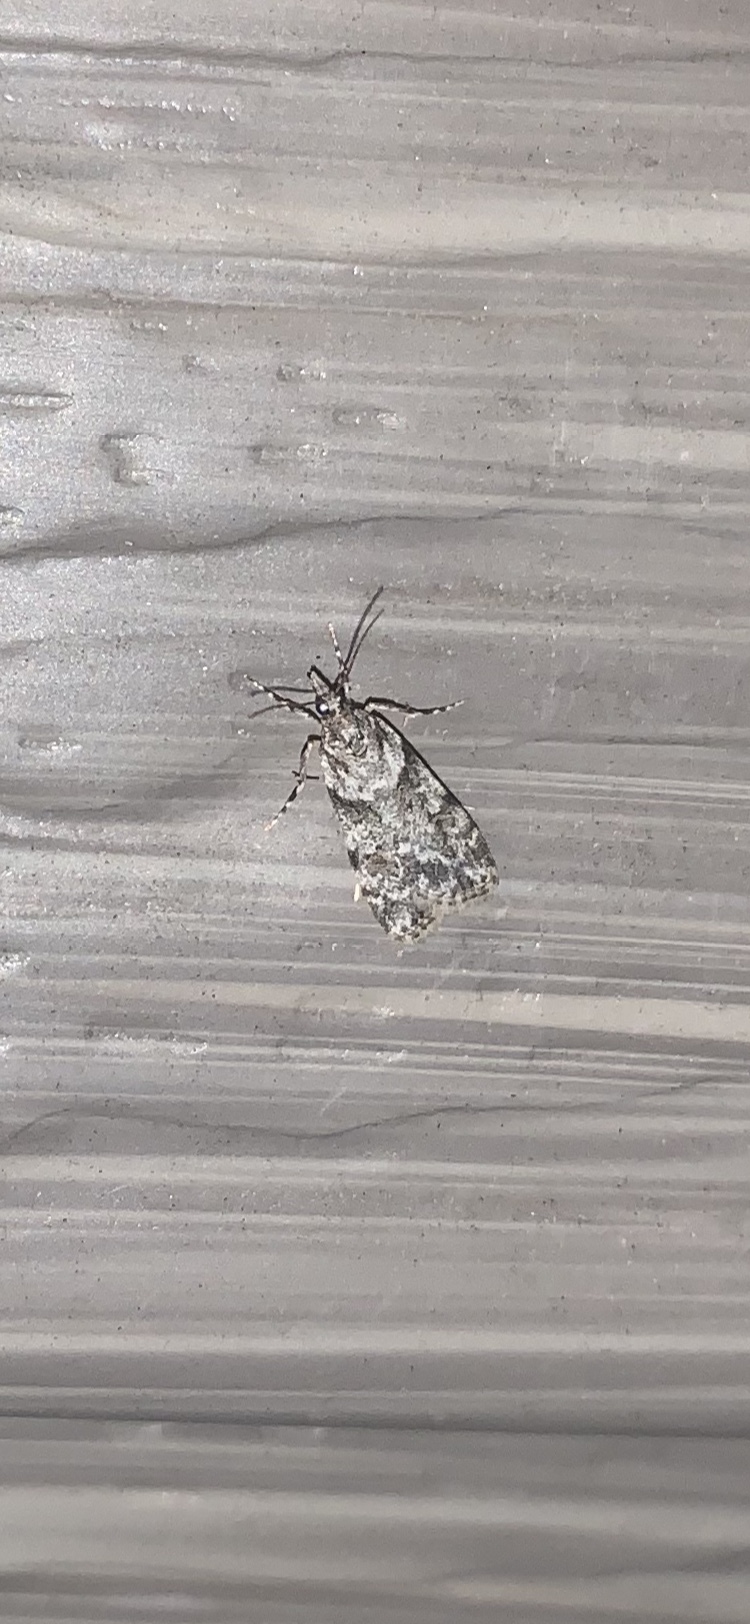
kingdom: Animalia
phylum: Arthropoda
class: Insecta
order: Lepidoptera
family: Crambidae
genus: Scoparia
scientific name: Scoparia biplagialis
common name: Double-striped scoparia moth
